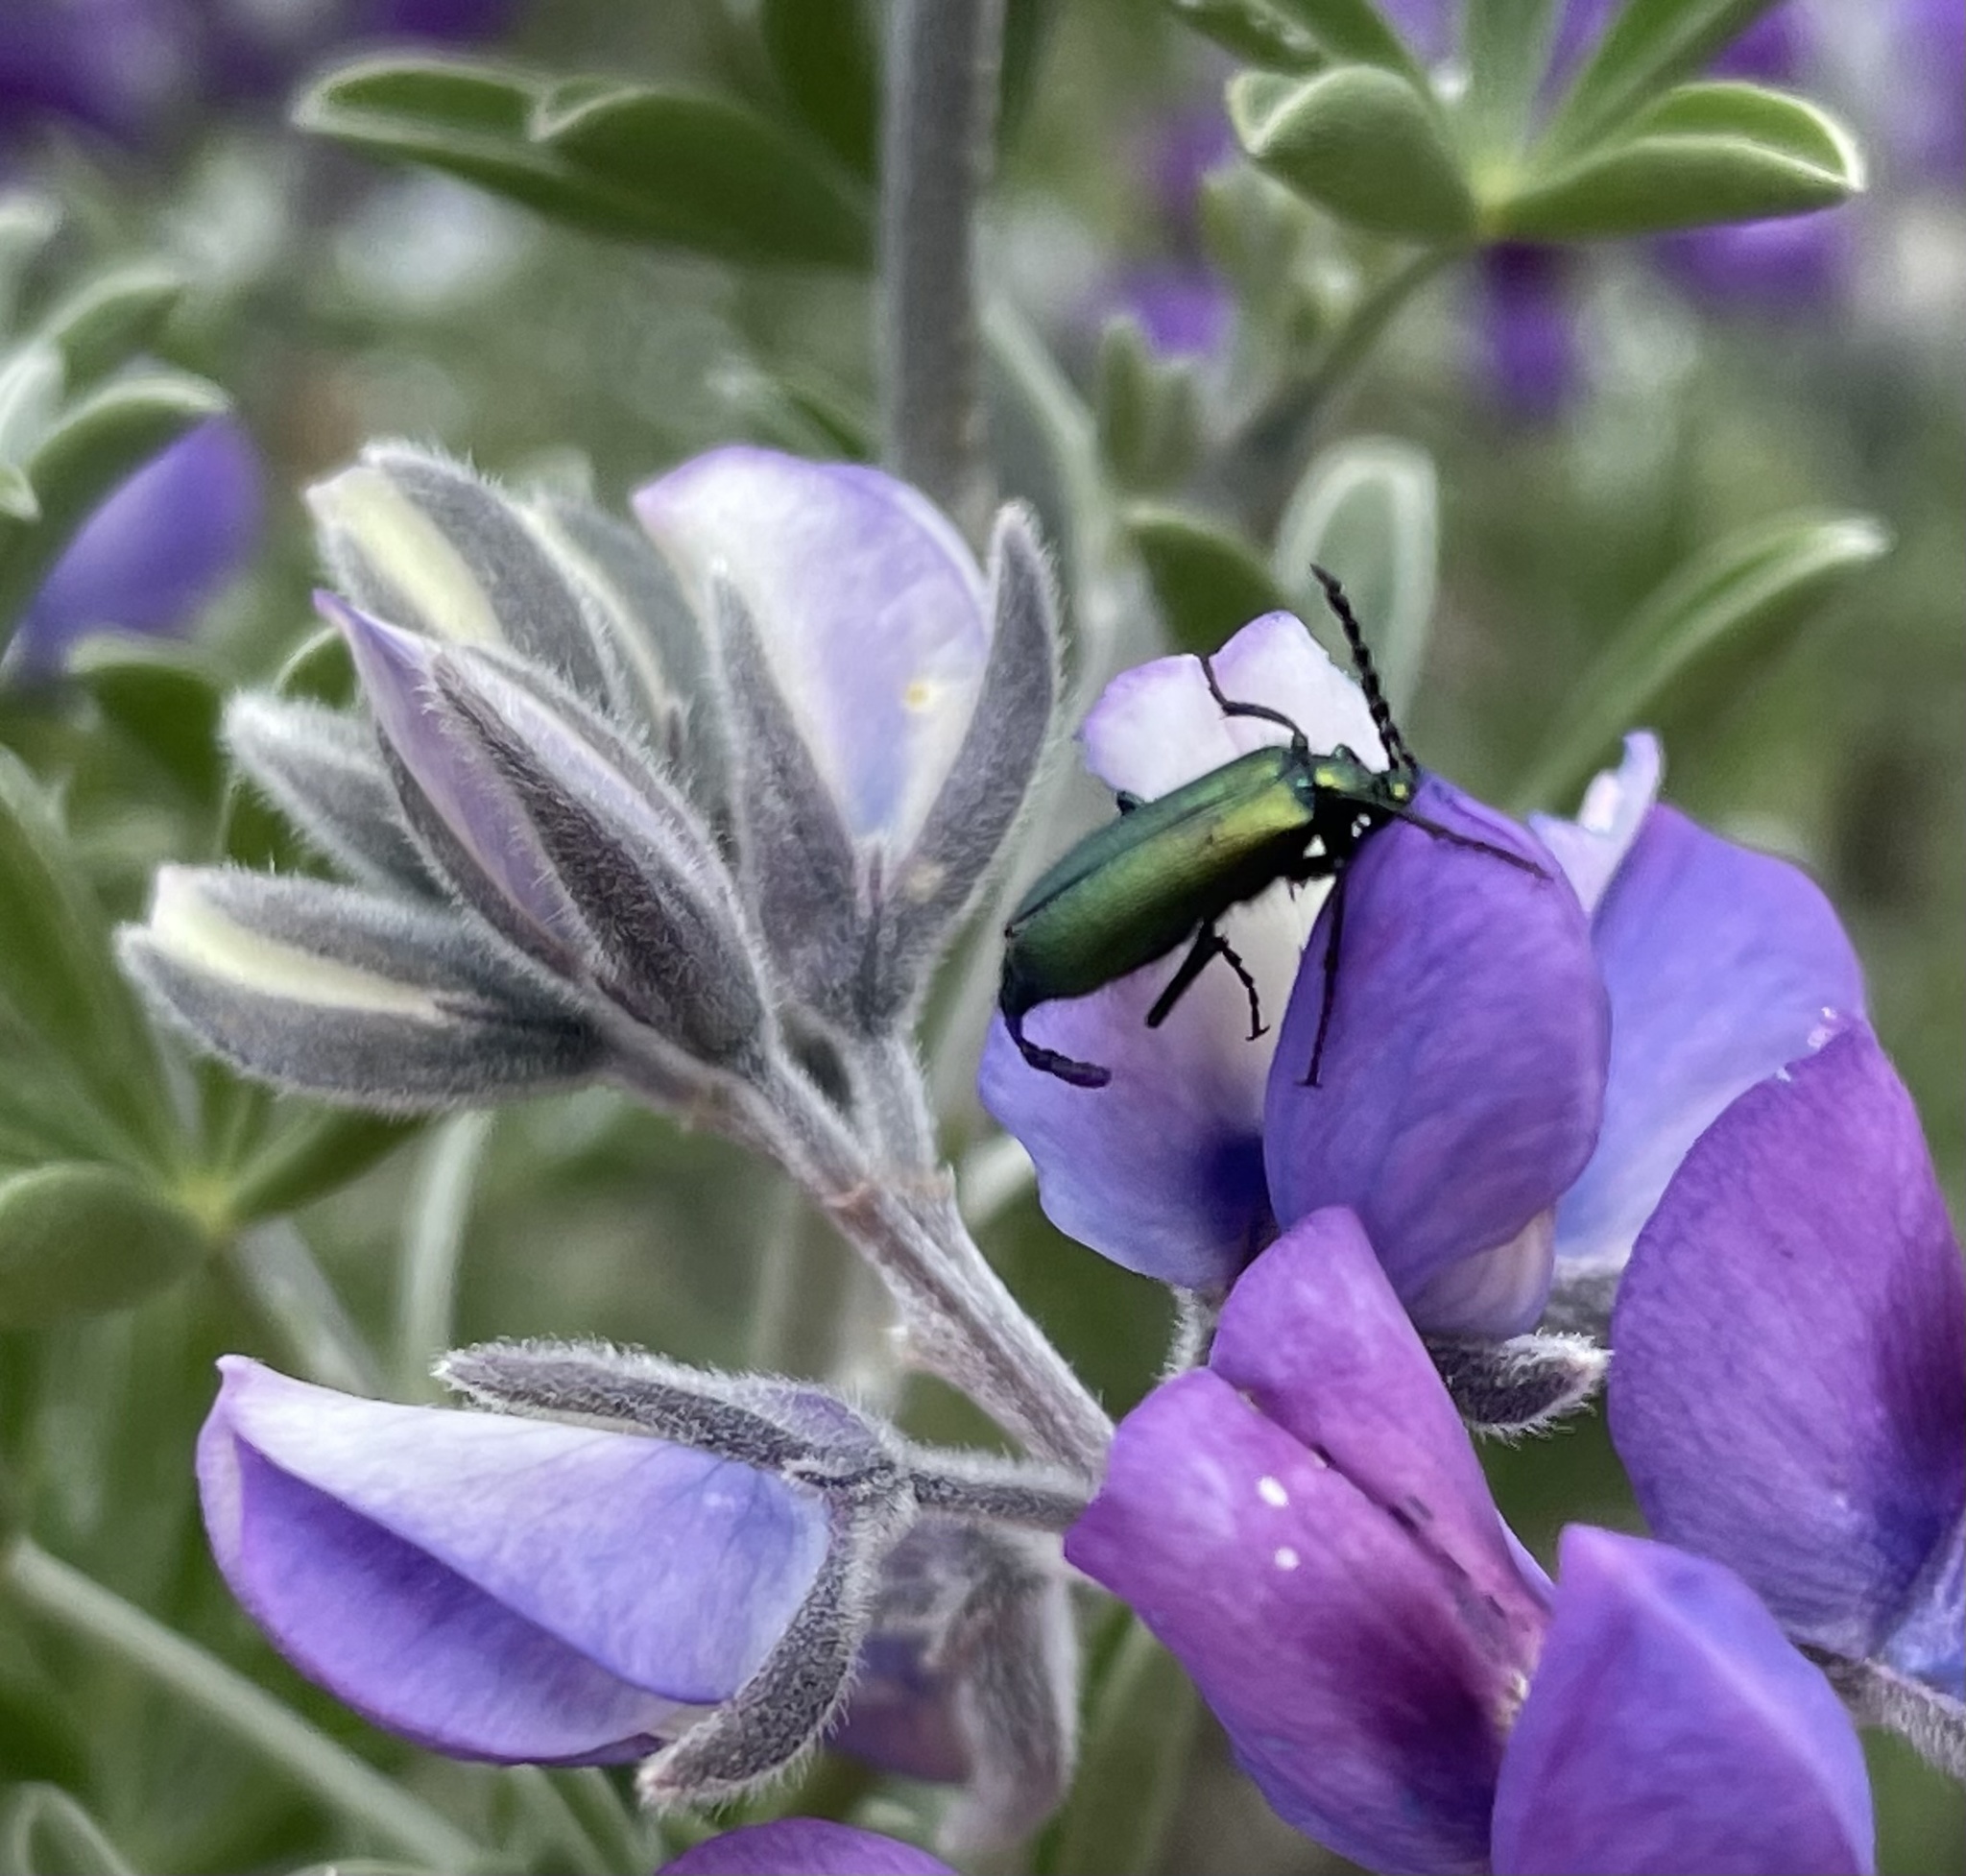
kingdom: Animalia
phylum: Arthropoda
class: Insecta
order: Coleoptera
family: Meloidae
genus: Lytta
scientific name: Lytta stygica
